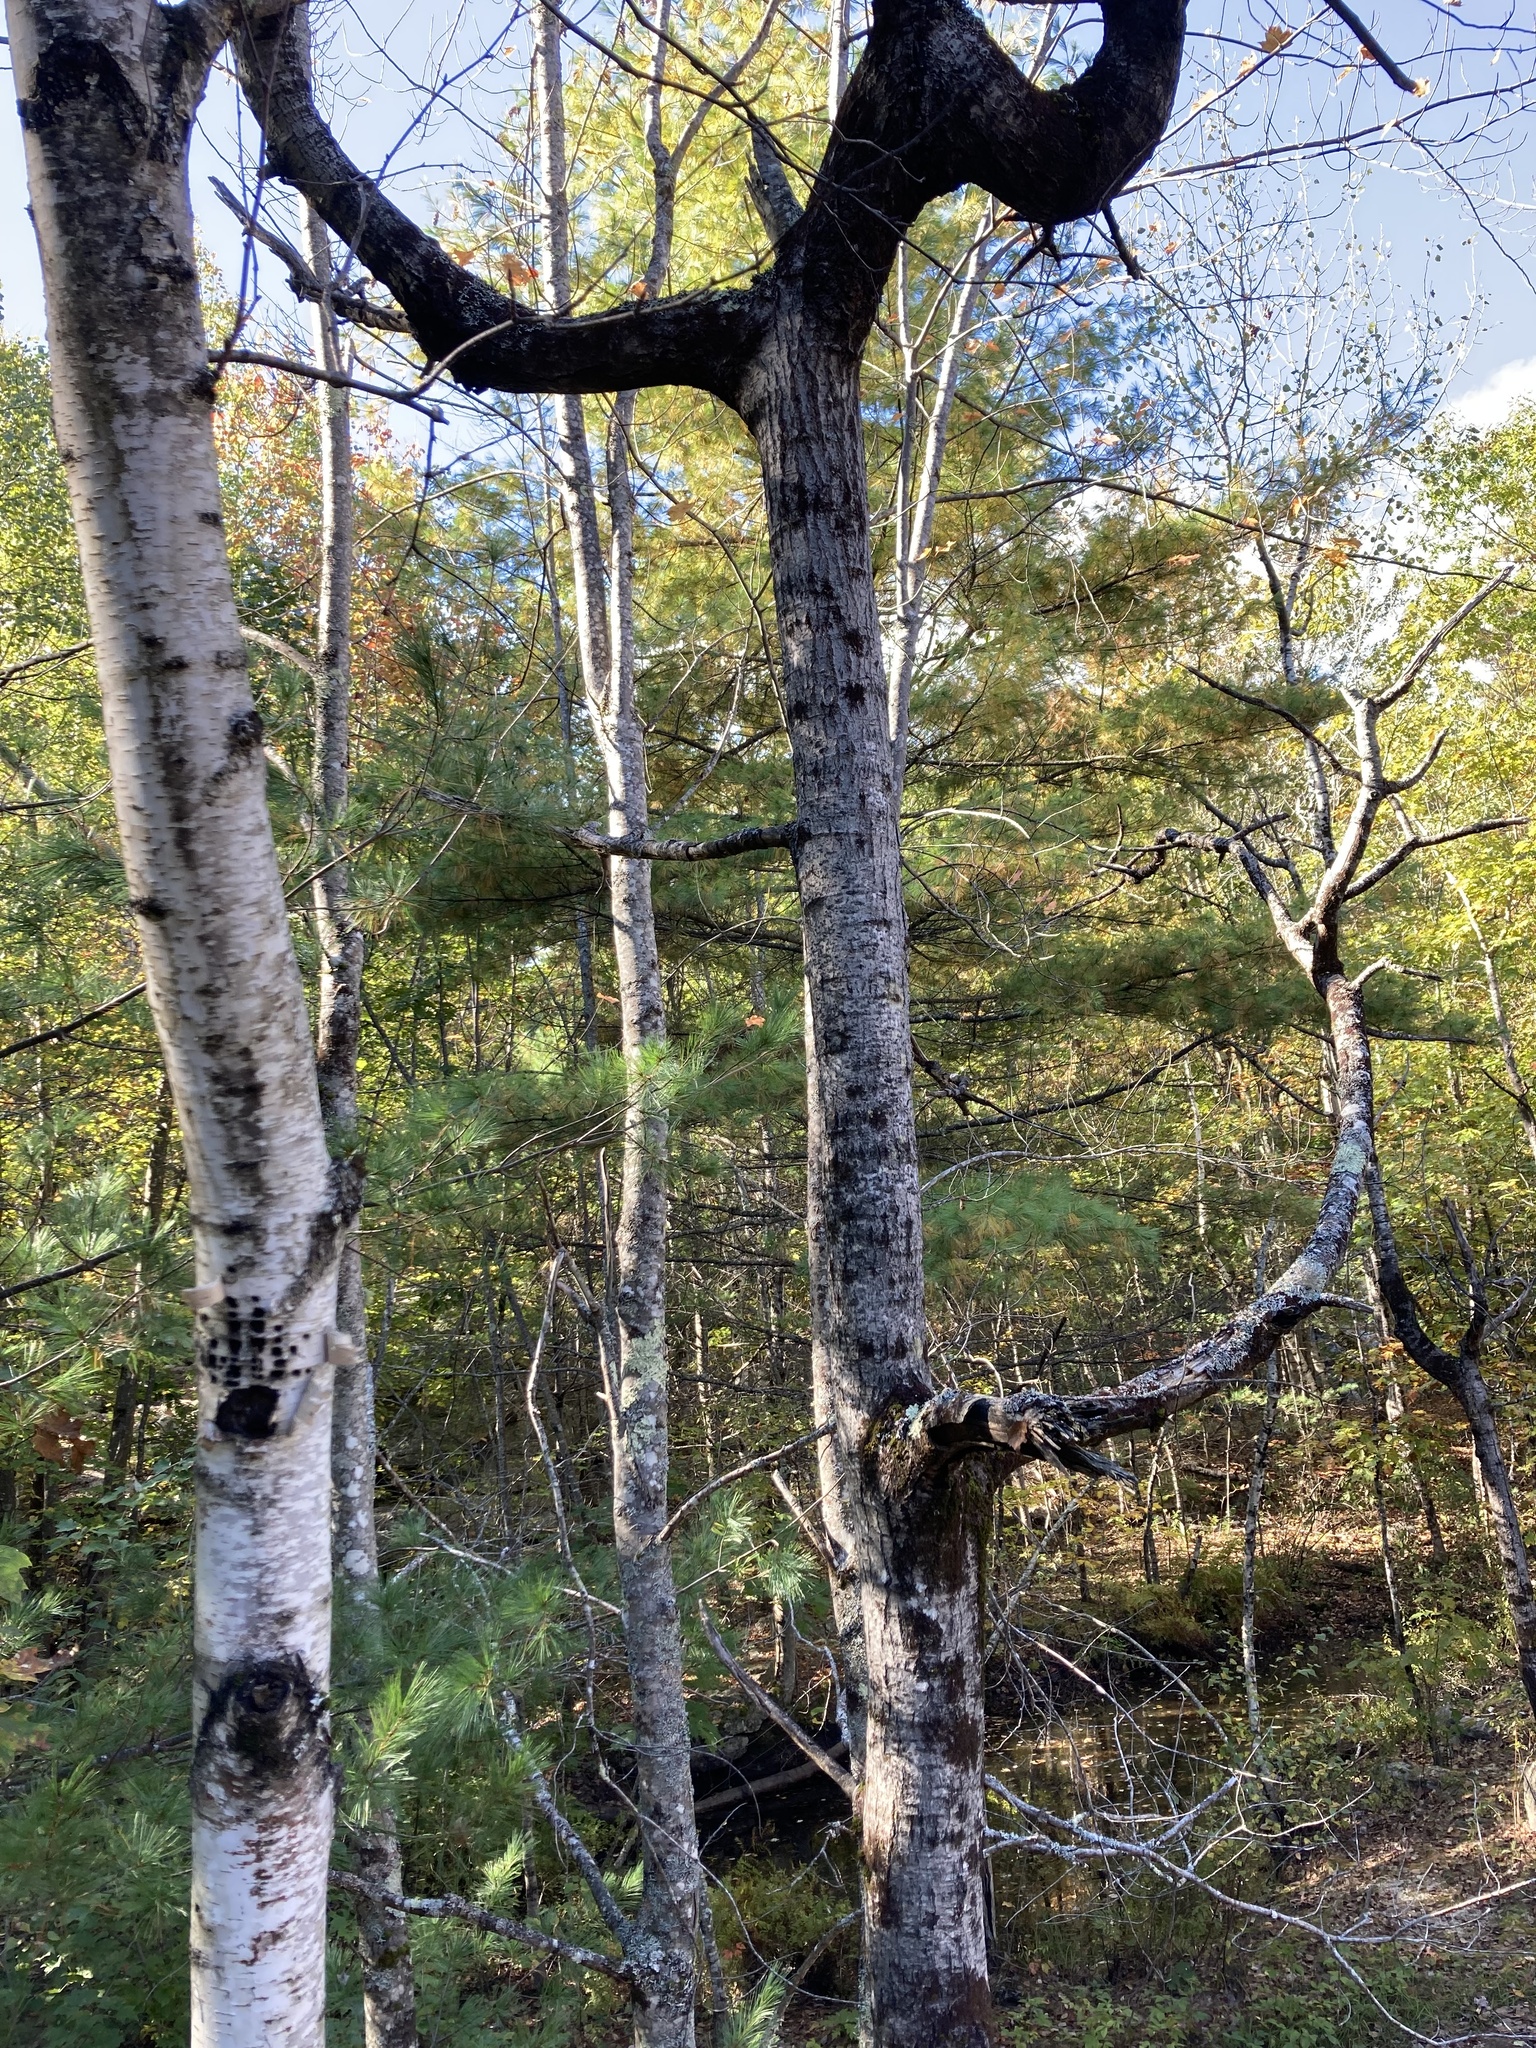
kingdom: Plantae
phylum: Tracheophyta
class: Magnoliopsida
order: Malpighiales
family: Salicaceae
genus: Populus
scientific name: Populus tremuloides
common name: Quaking aspen
